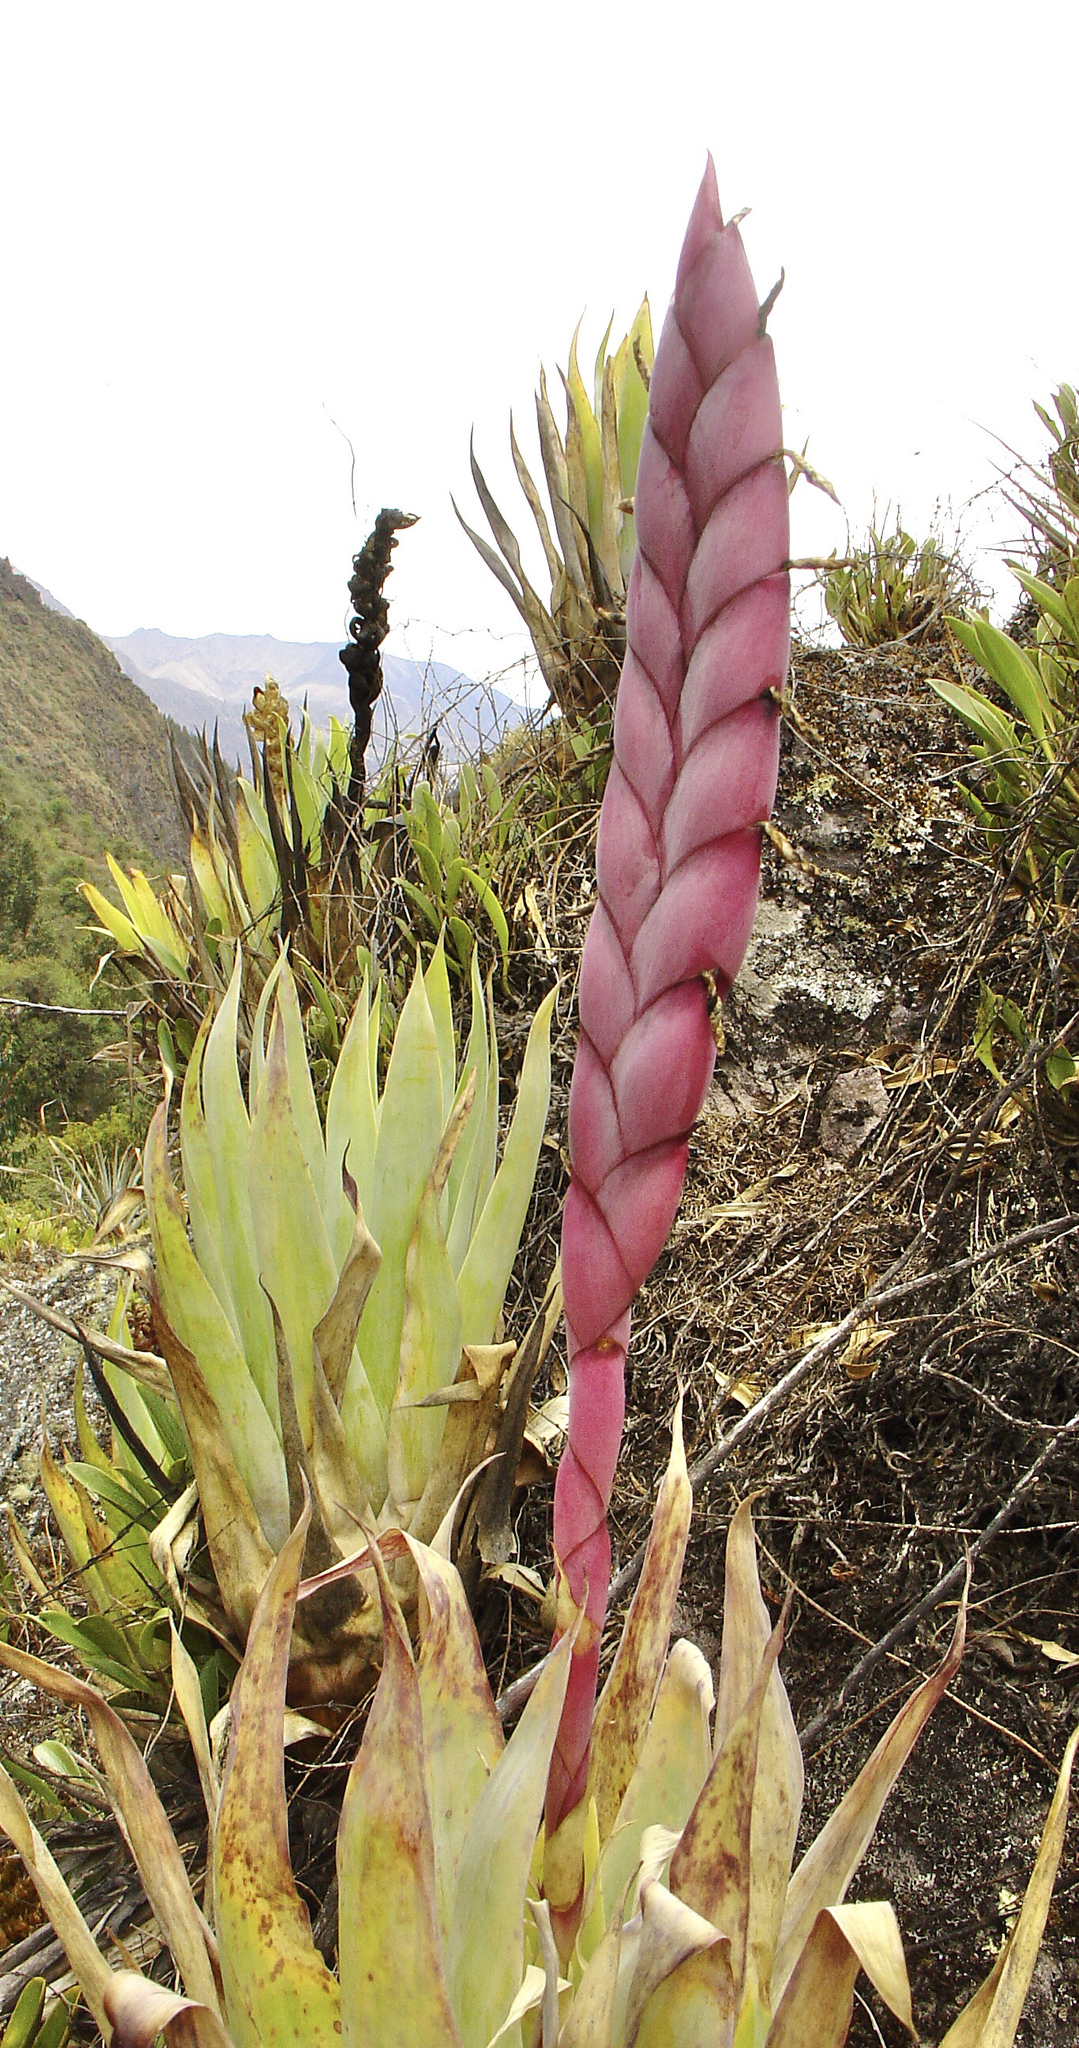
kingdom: Plantae
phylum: Tracheophyta
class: Liliopsida
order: Poales
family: Bromeliaceae
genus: Tillandsia
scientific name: Tillandsia walteri
